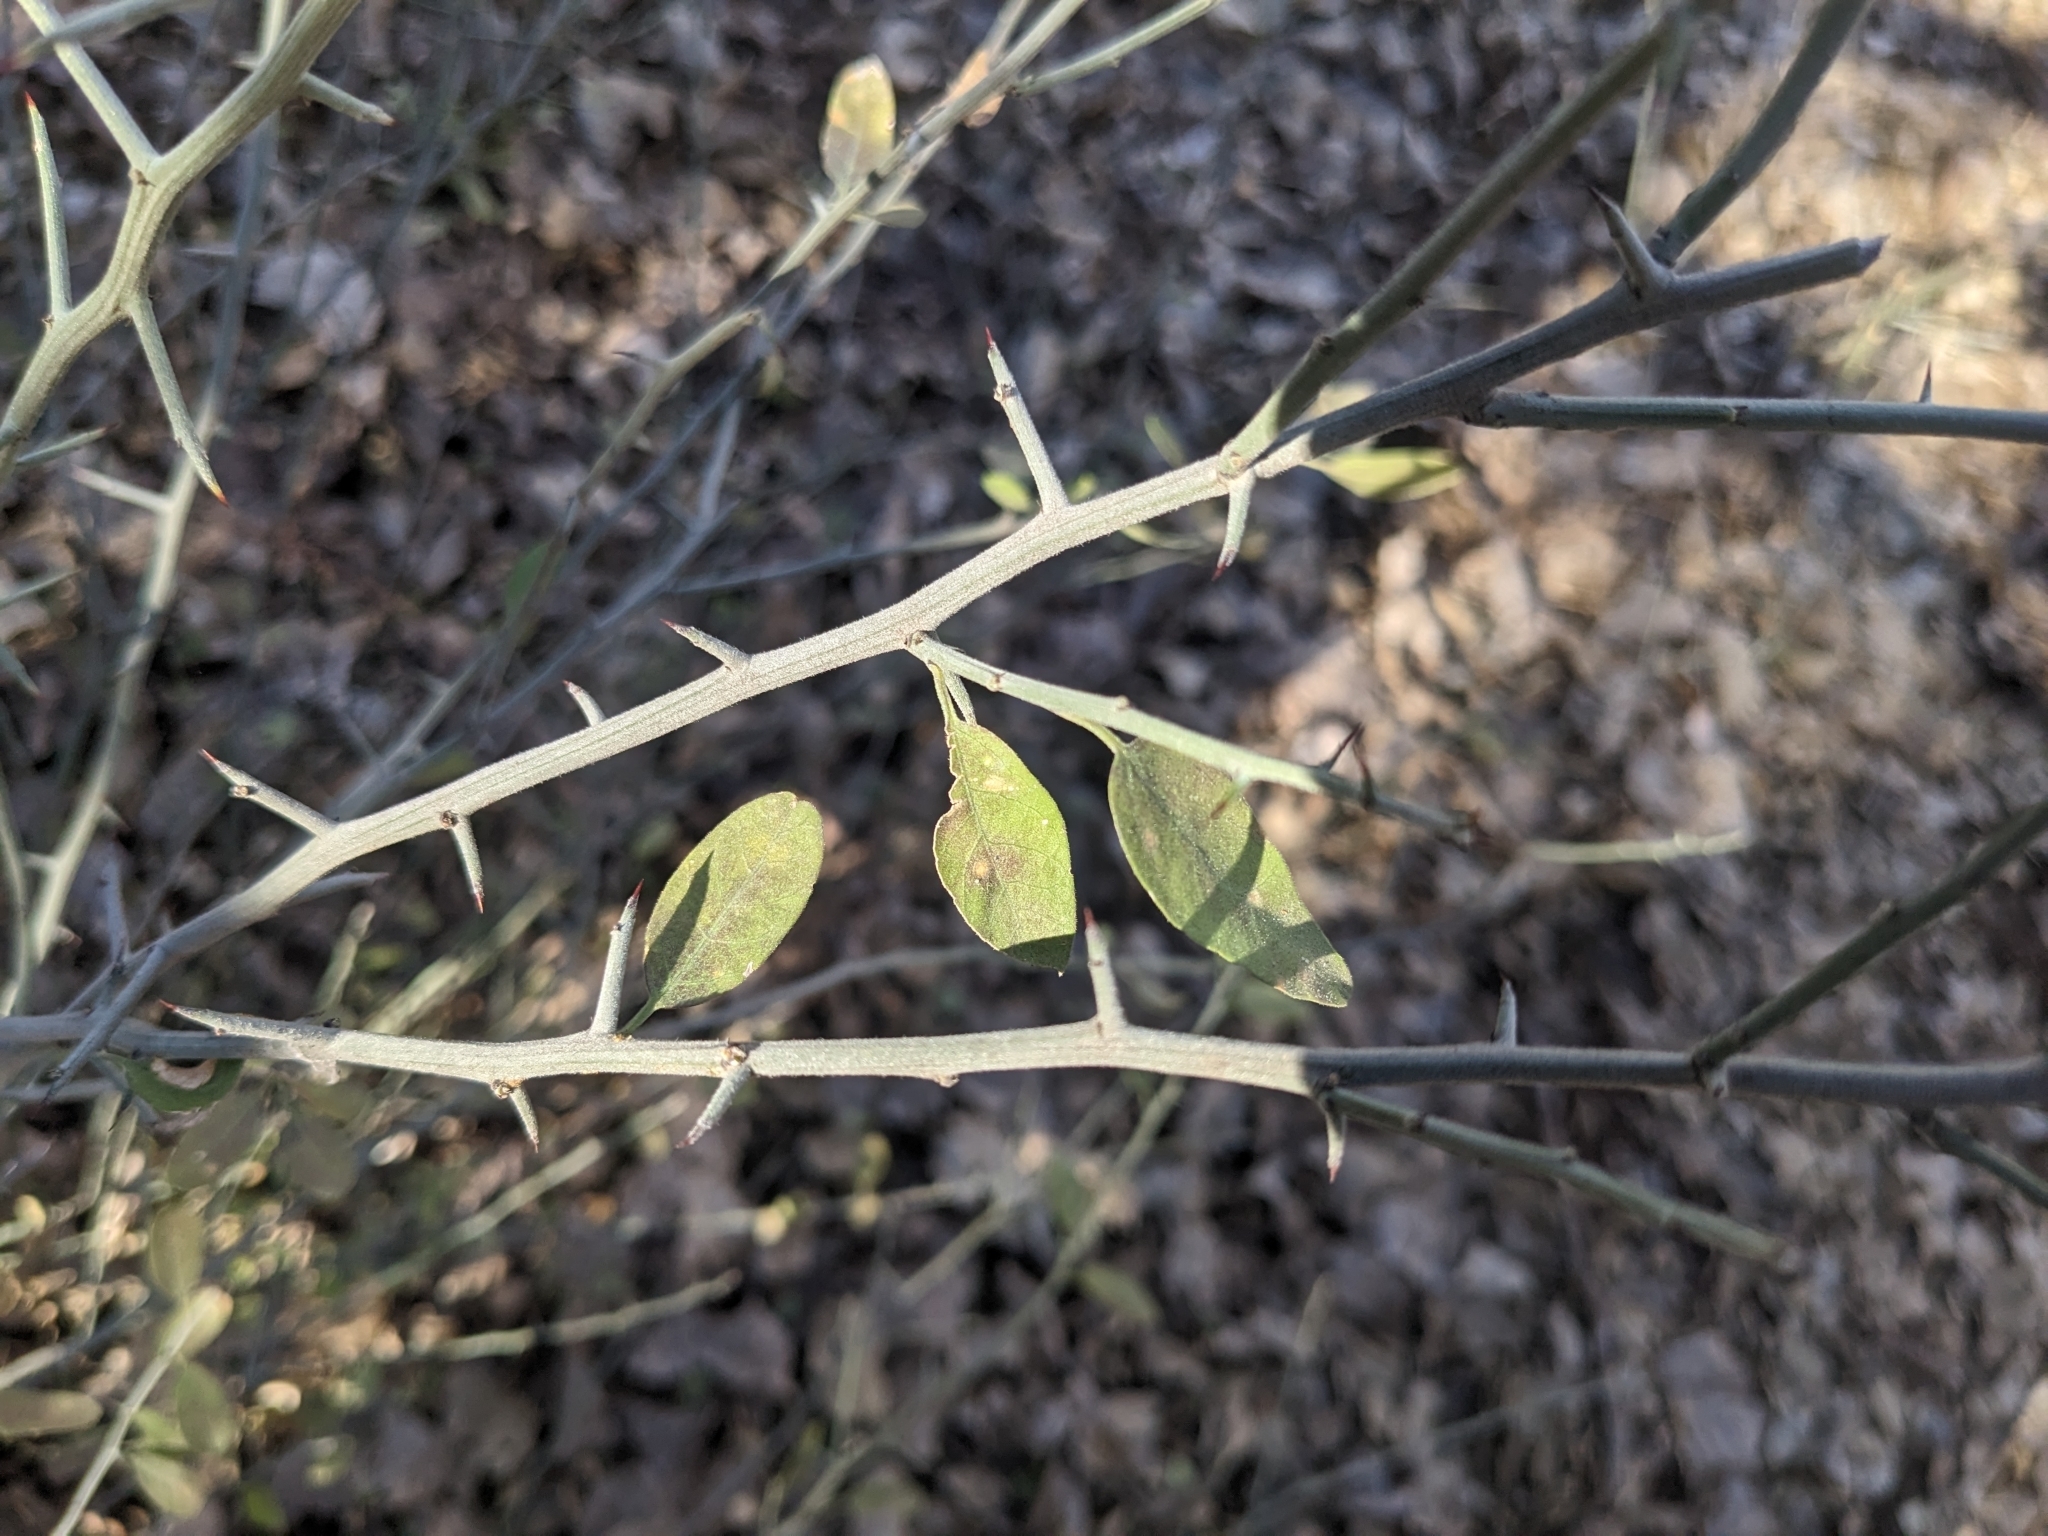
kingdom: Plantae
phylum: Tracheophyta
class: Magnoliopsida
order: Rosales
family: Rhamnaceae
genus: Sarcomphalus
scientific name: Sarcomphalus obtusifolius
